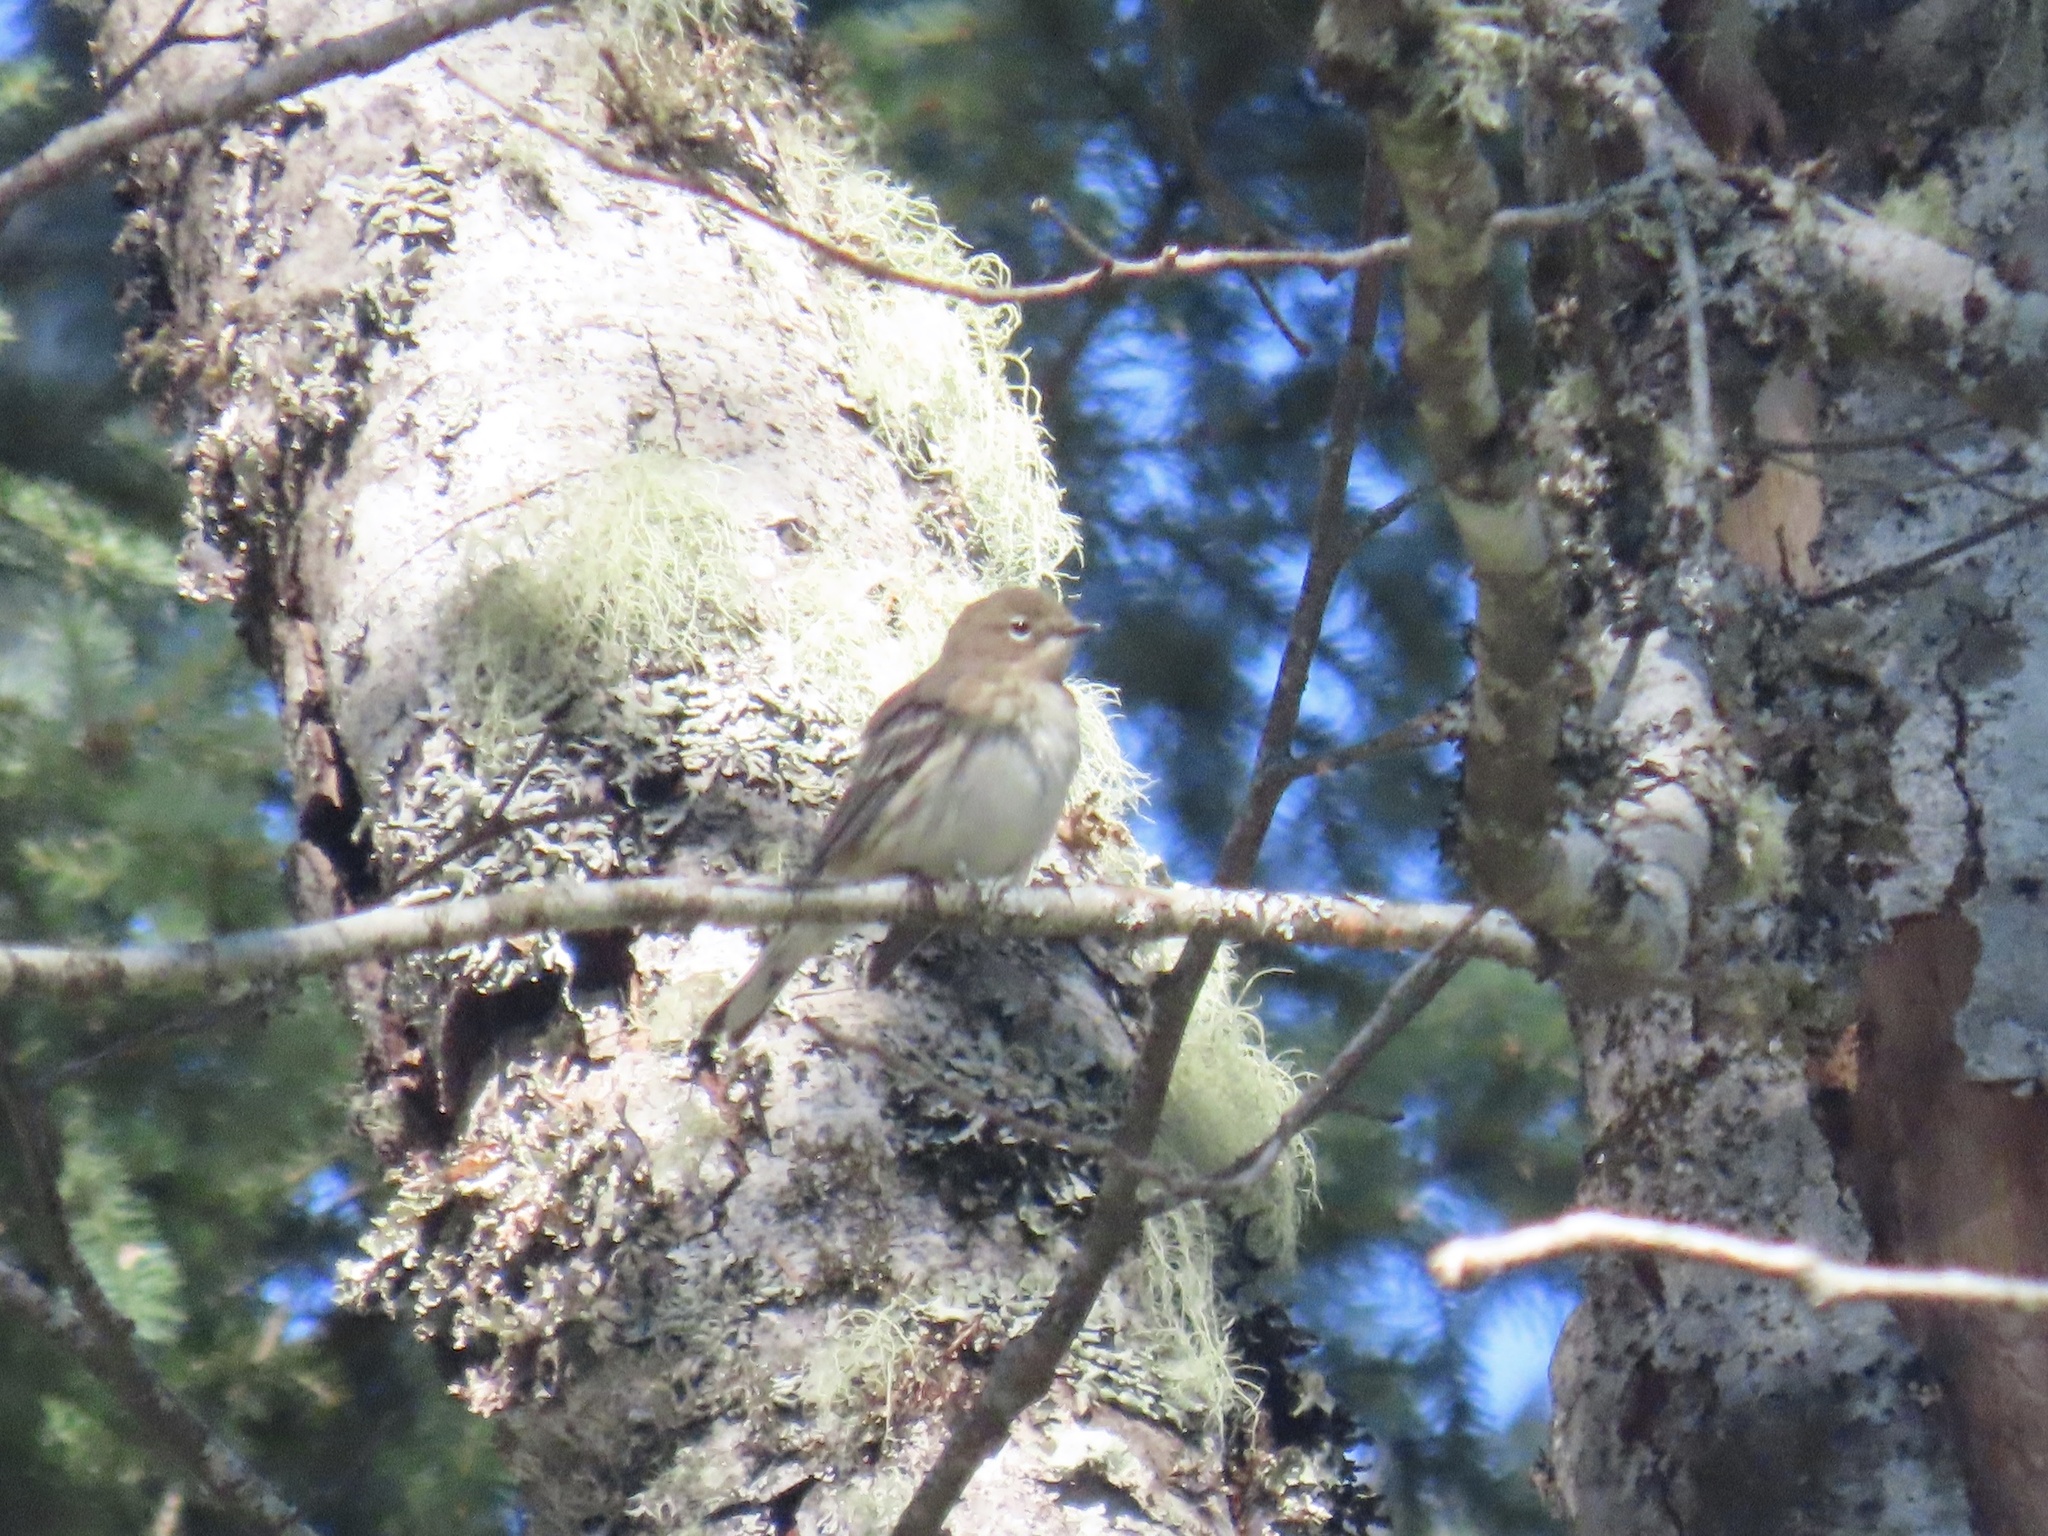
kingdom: Animalia
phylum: Chordata
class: Aves
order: Passeriformes
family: Parulidae
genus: Setophaga
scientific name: Setophaga coronata
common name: Myrtle warbler
